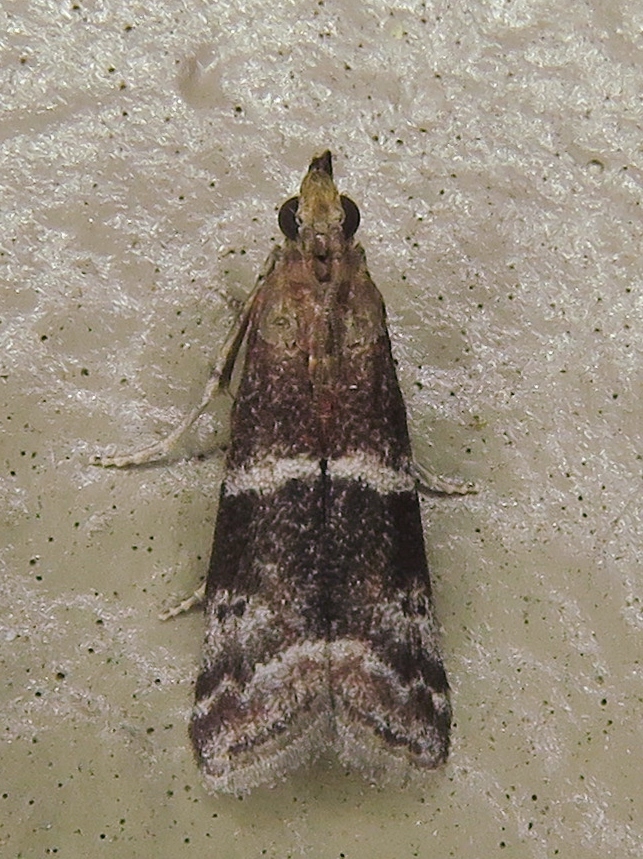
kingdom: Animalia
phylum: Arthropoda
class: Insecta
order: Lepidoptera
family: Pyralidae
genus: Moodna
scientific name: Moodna ostrinella
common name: Darker moodna moth
